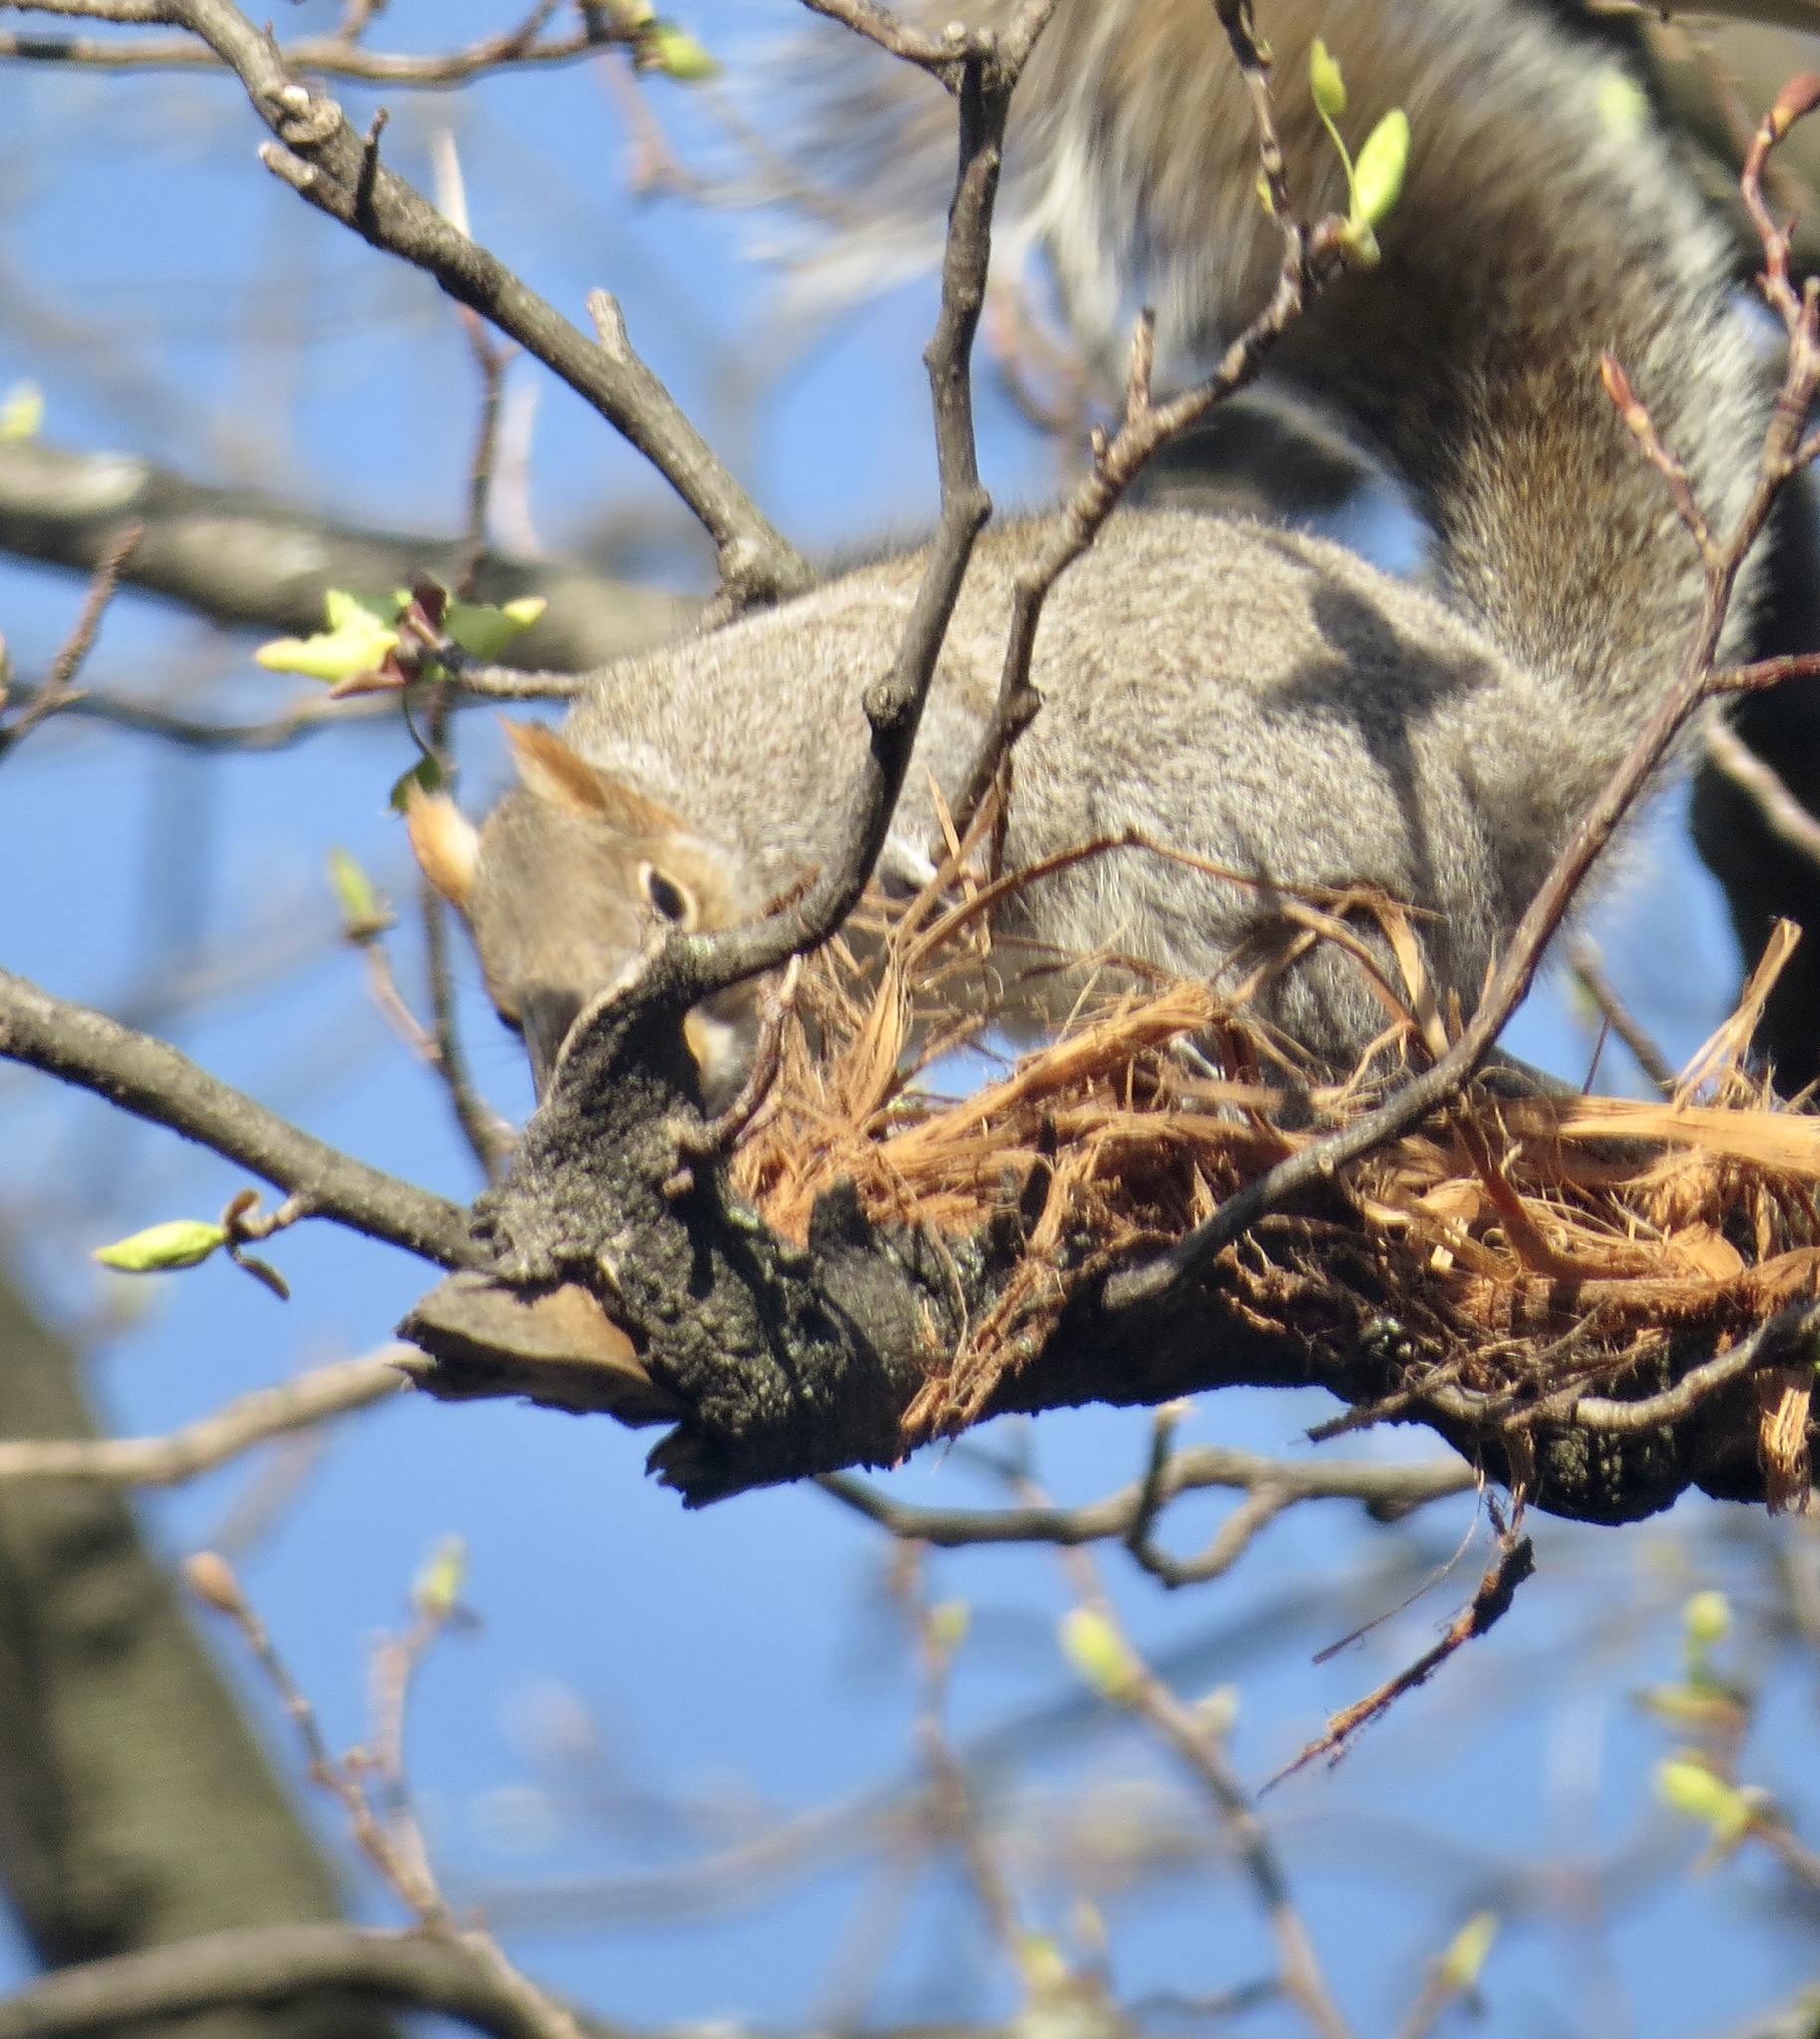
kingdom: Animalia
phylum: Chordata
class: Mammalia
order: Rodentia
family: Sciuridae
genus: Sciurus
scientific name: Sciurus carolinensis
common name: Eastern gray squirrel
